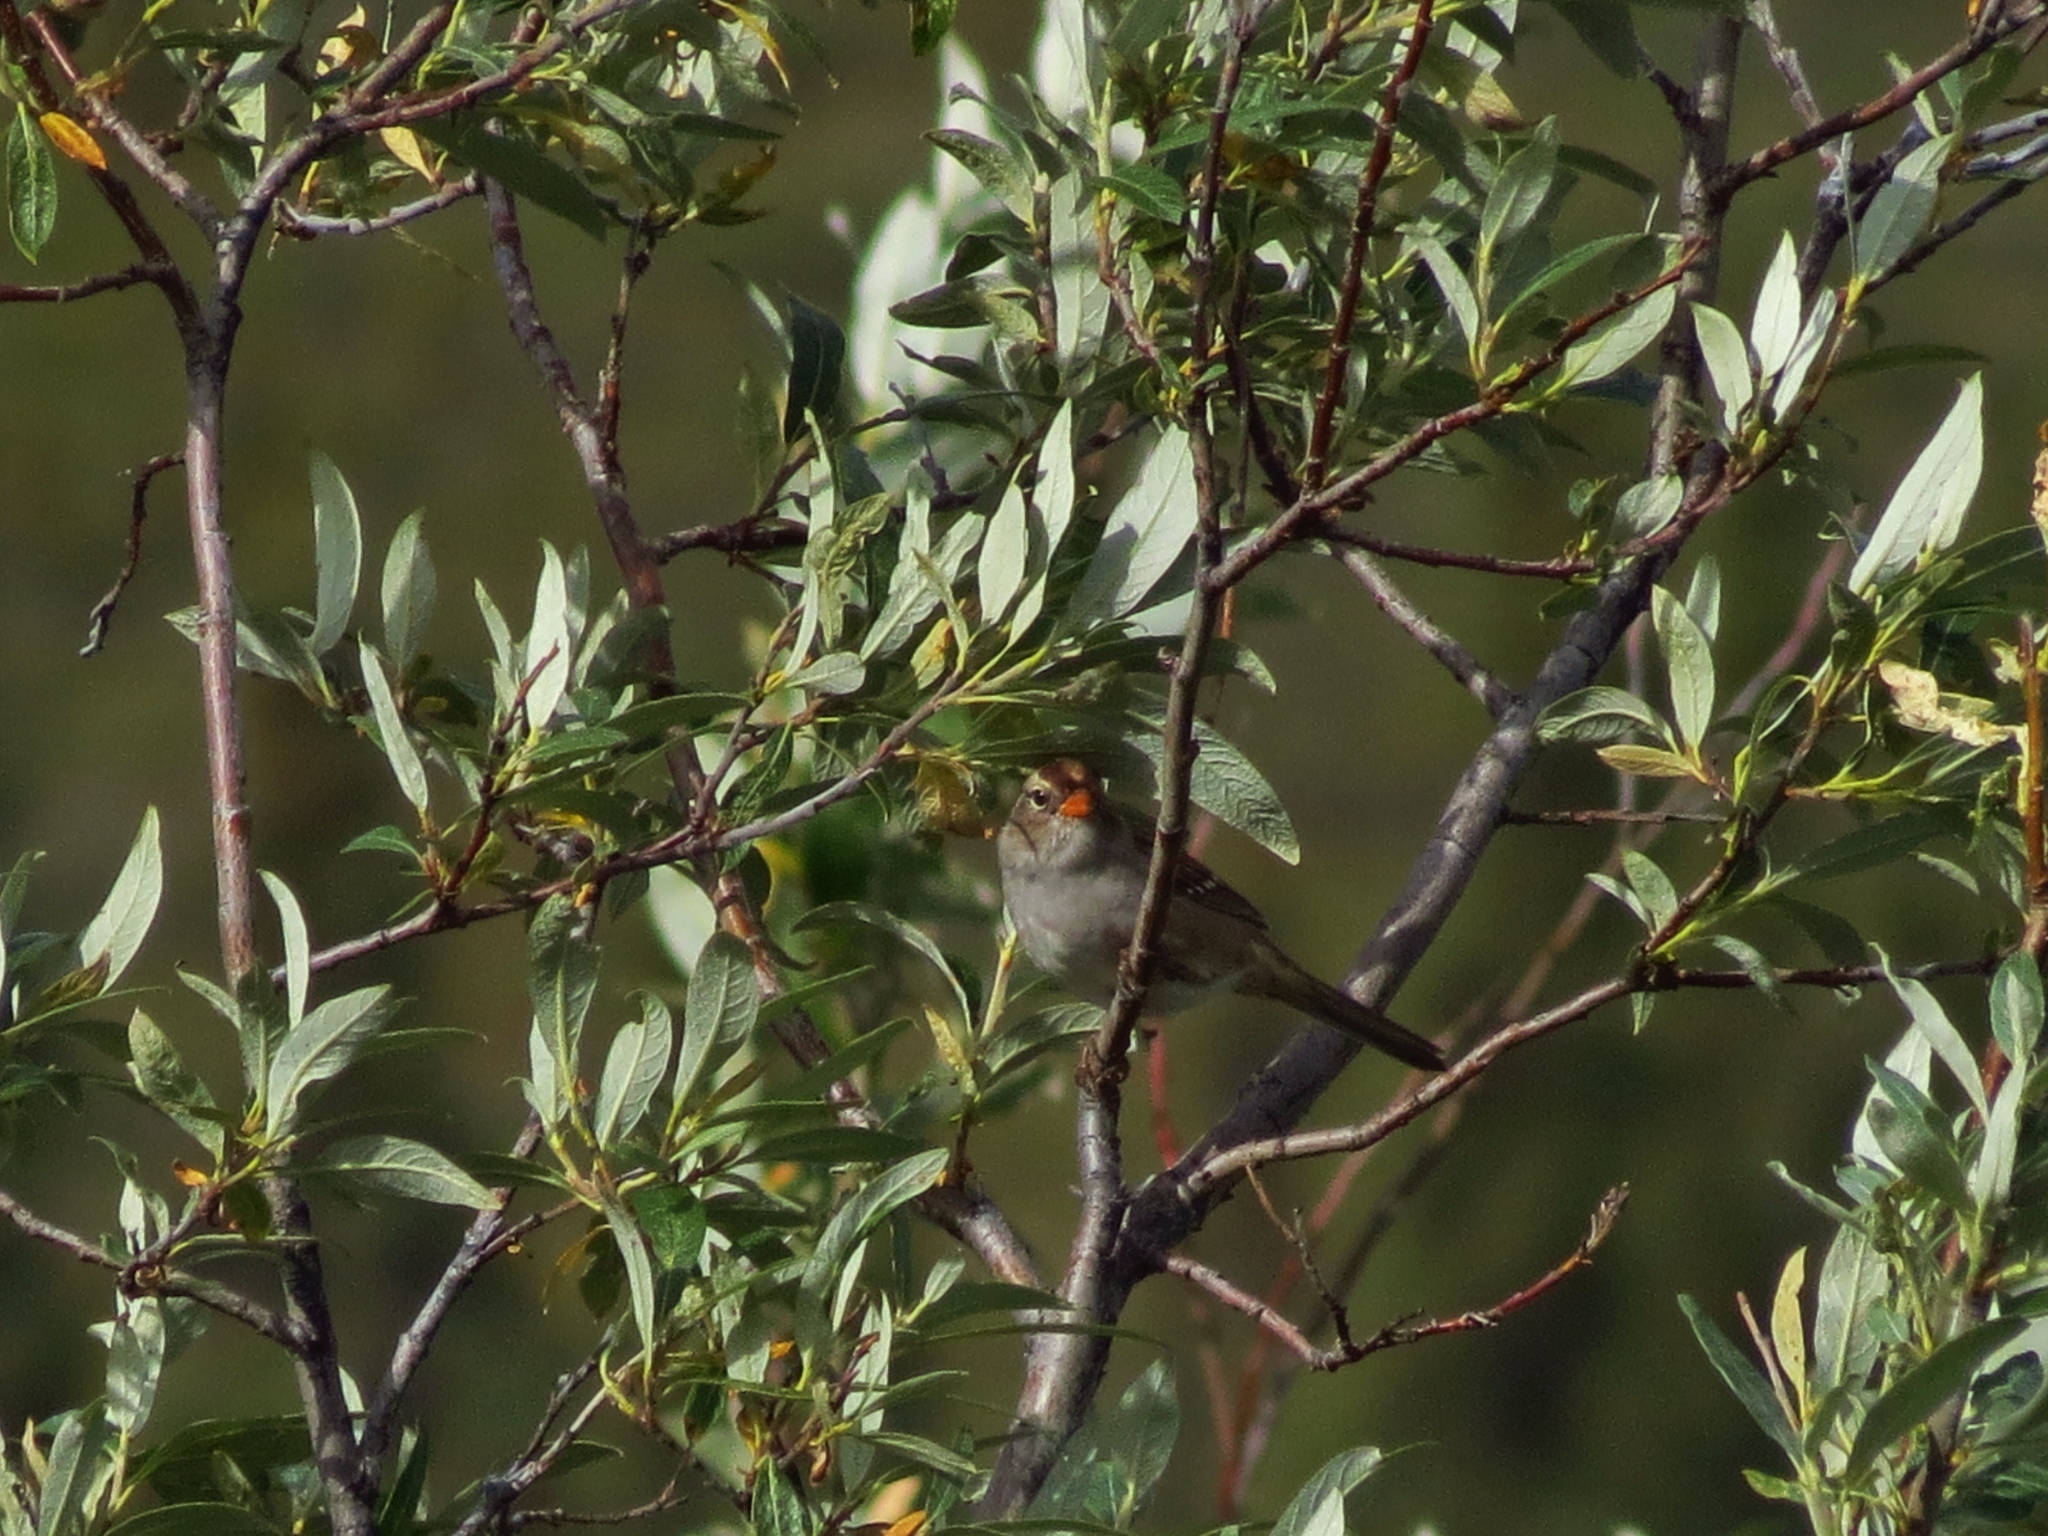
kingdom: Animalia
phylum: Chordata
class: Aves
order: Passeriformes
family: Passerellidae
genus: Zonotrichia
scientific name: Zonotrichia leucophrys
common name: White-crowned sparrow
